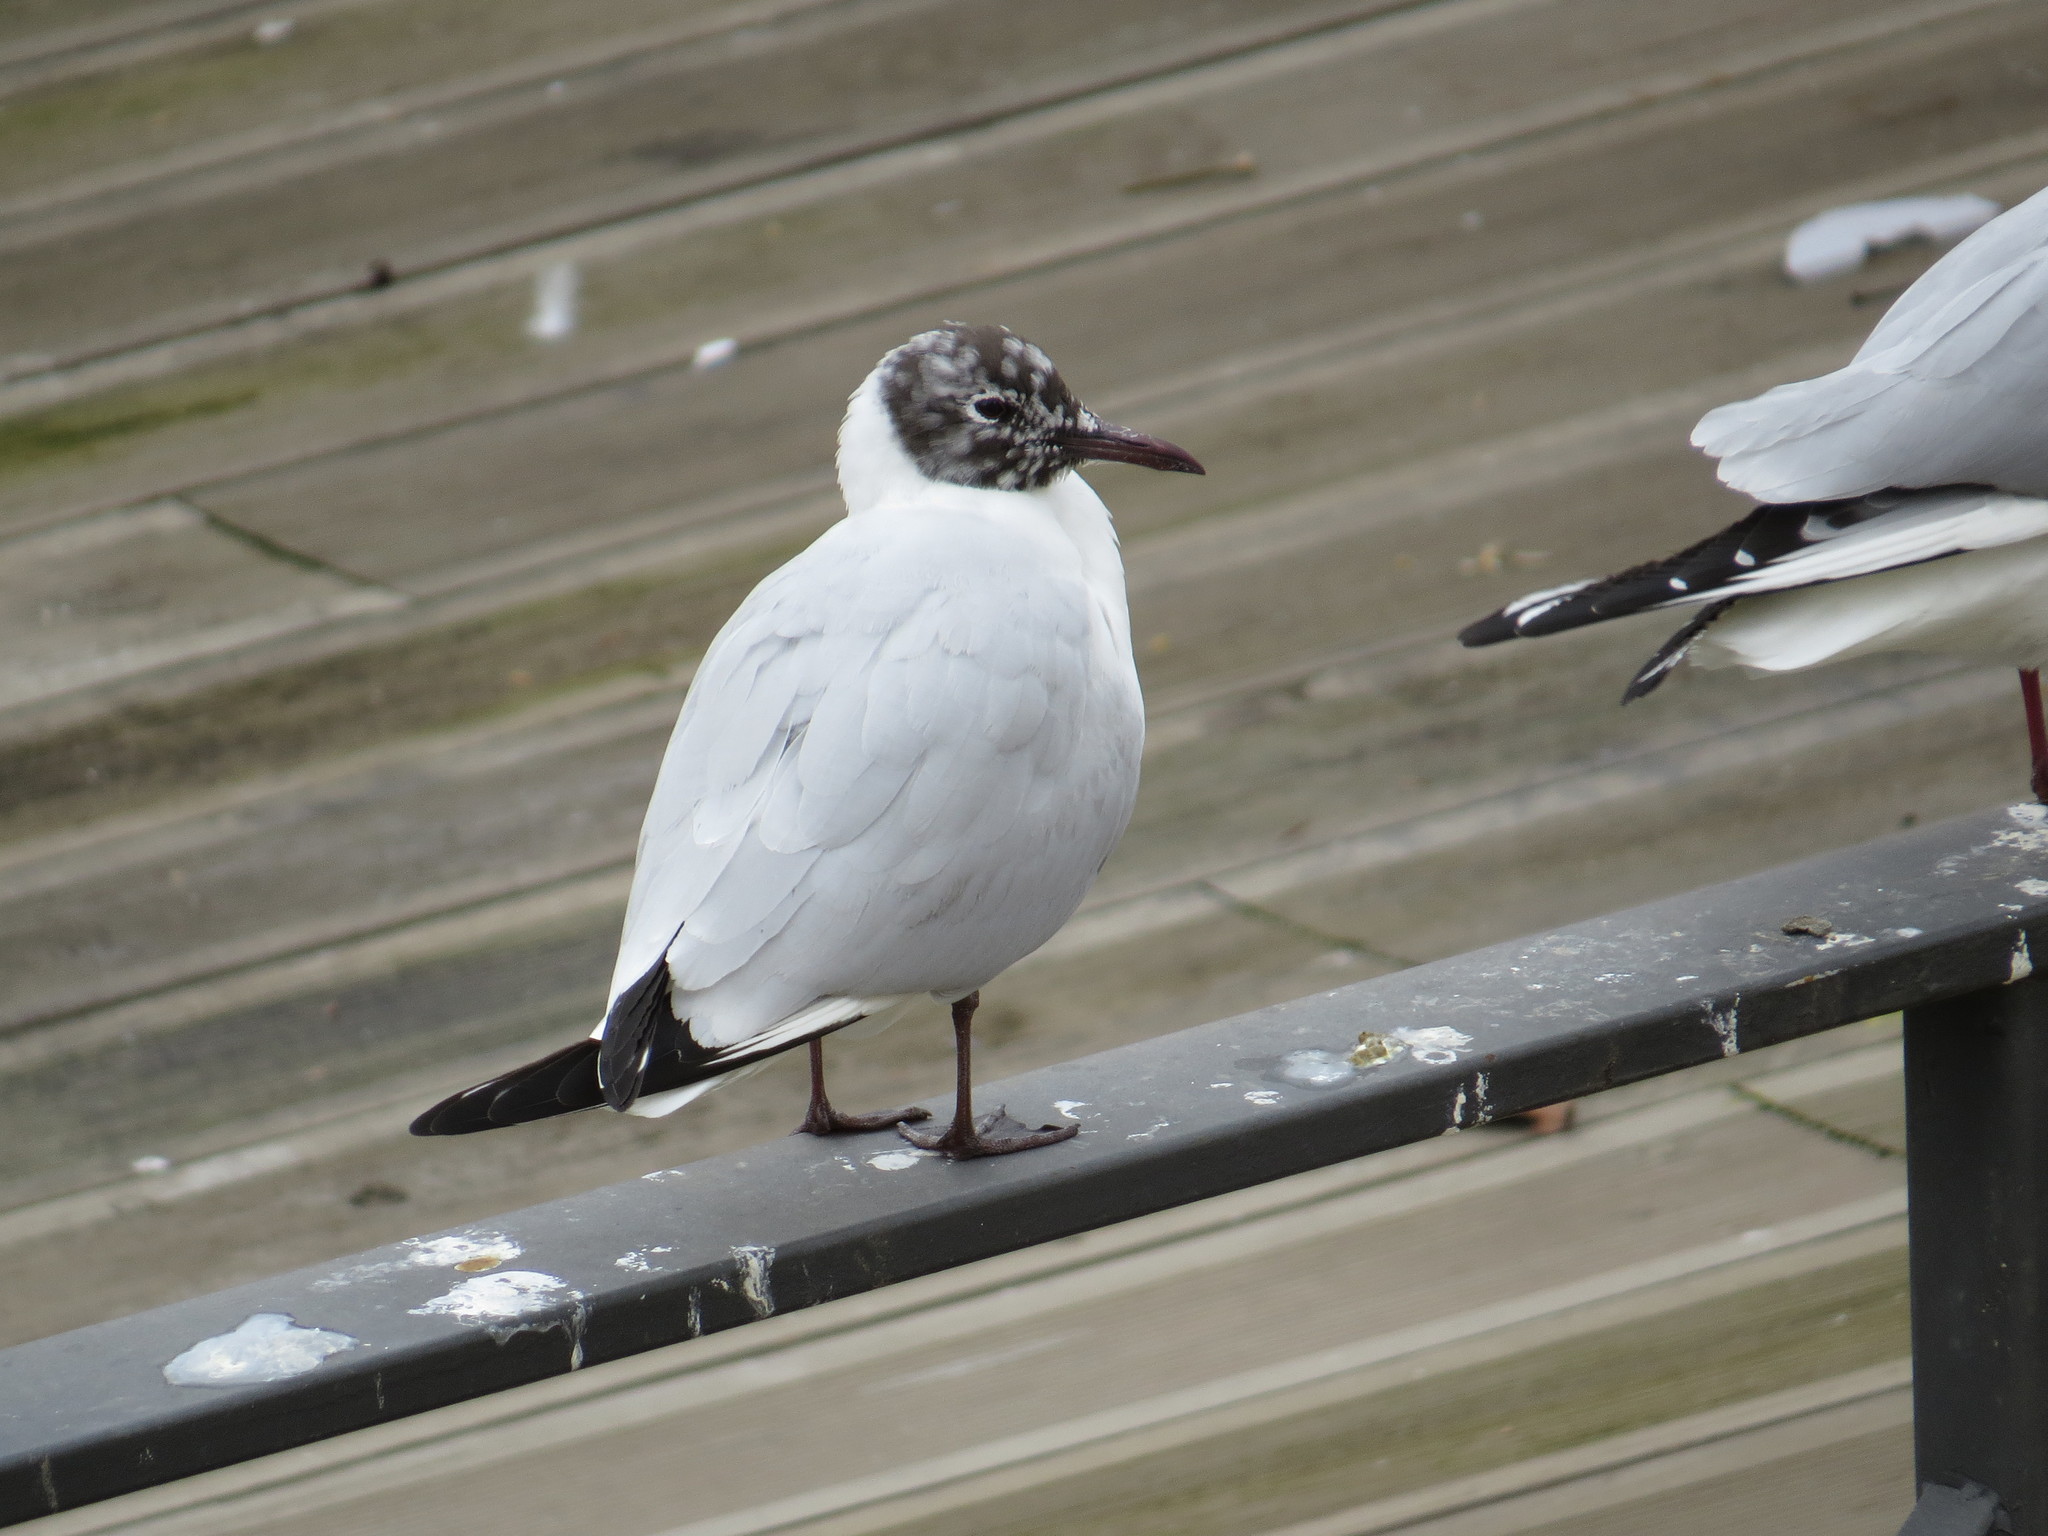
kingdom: Animalia
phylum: Chordata
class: Aves
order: Charadriiformes
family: Laridae
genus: Chroicocephalus
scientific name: Chroicocephalus ridibundus
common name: Black-headed gull
